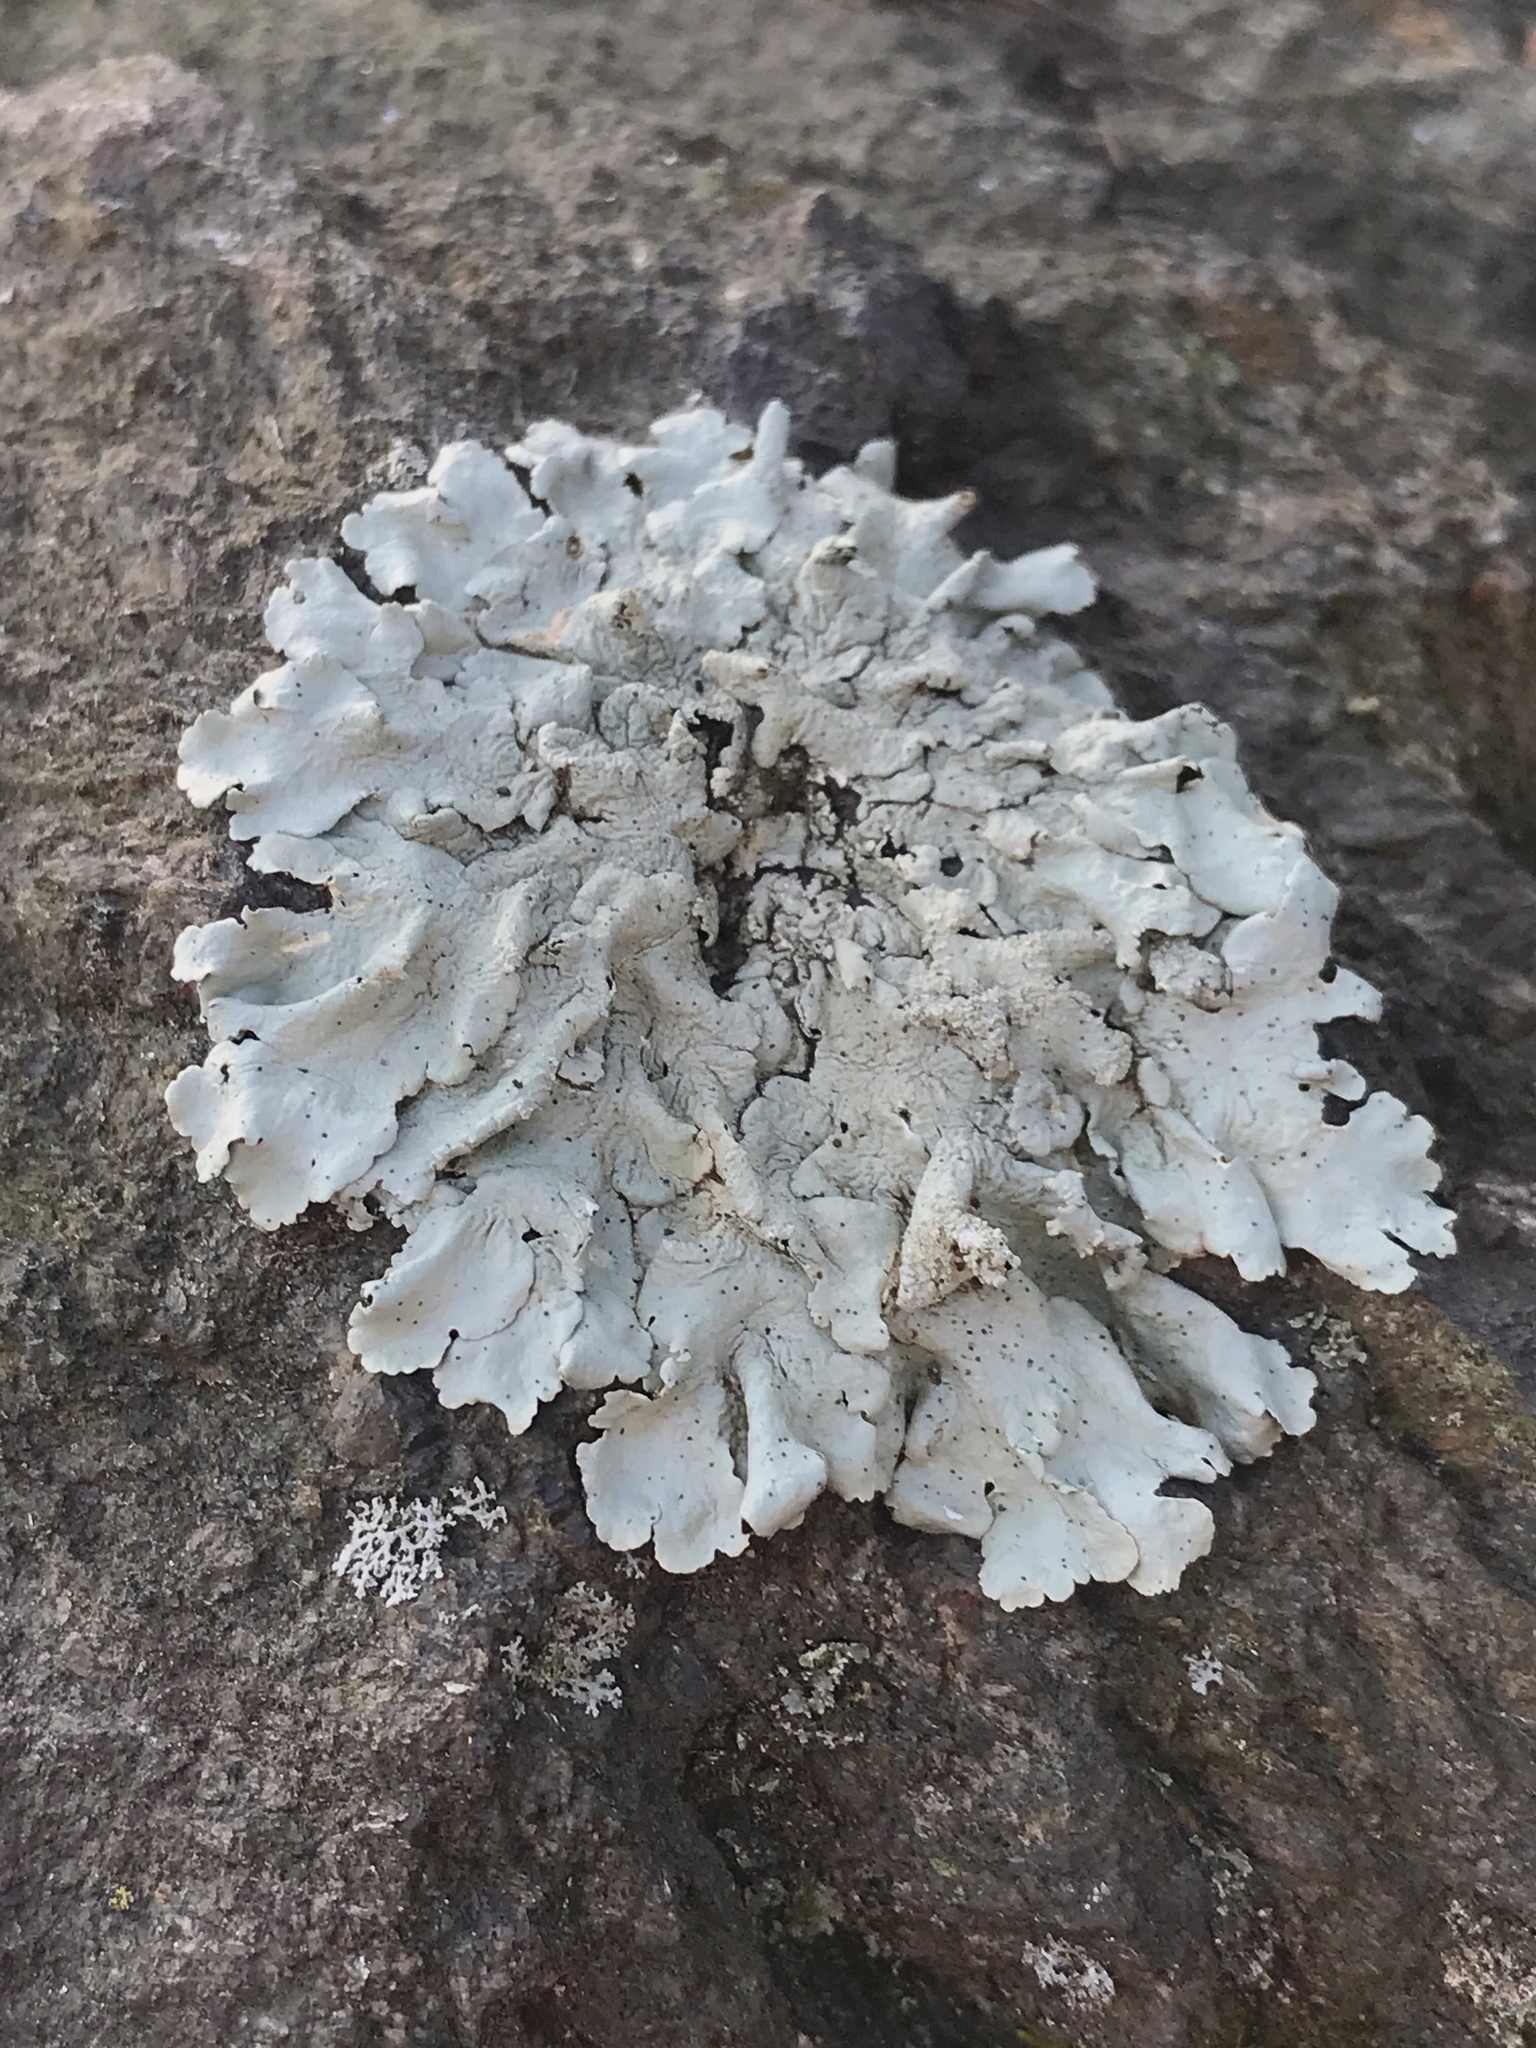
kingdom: Fungi
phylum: Ascomycota
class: Lecanoromycetes
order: Lecanorales
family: Parmeliaceae
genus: Flavoparmelia
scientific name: Flavoparmelia caperata
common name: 40-mile per hour lichen
